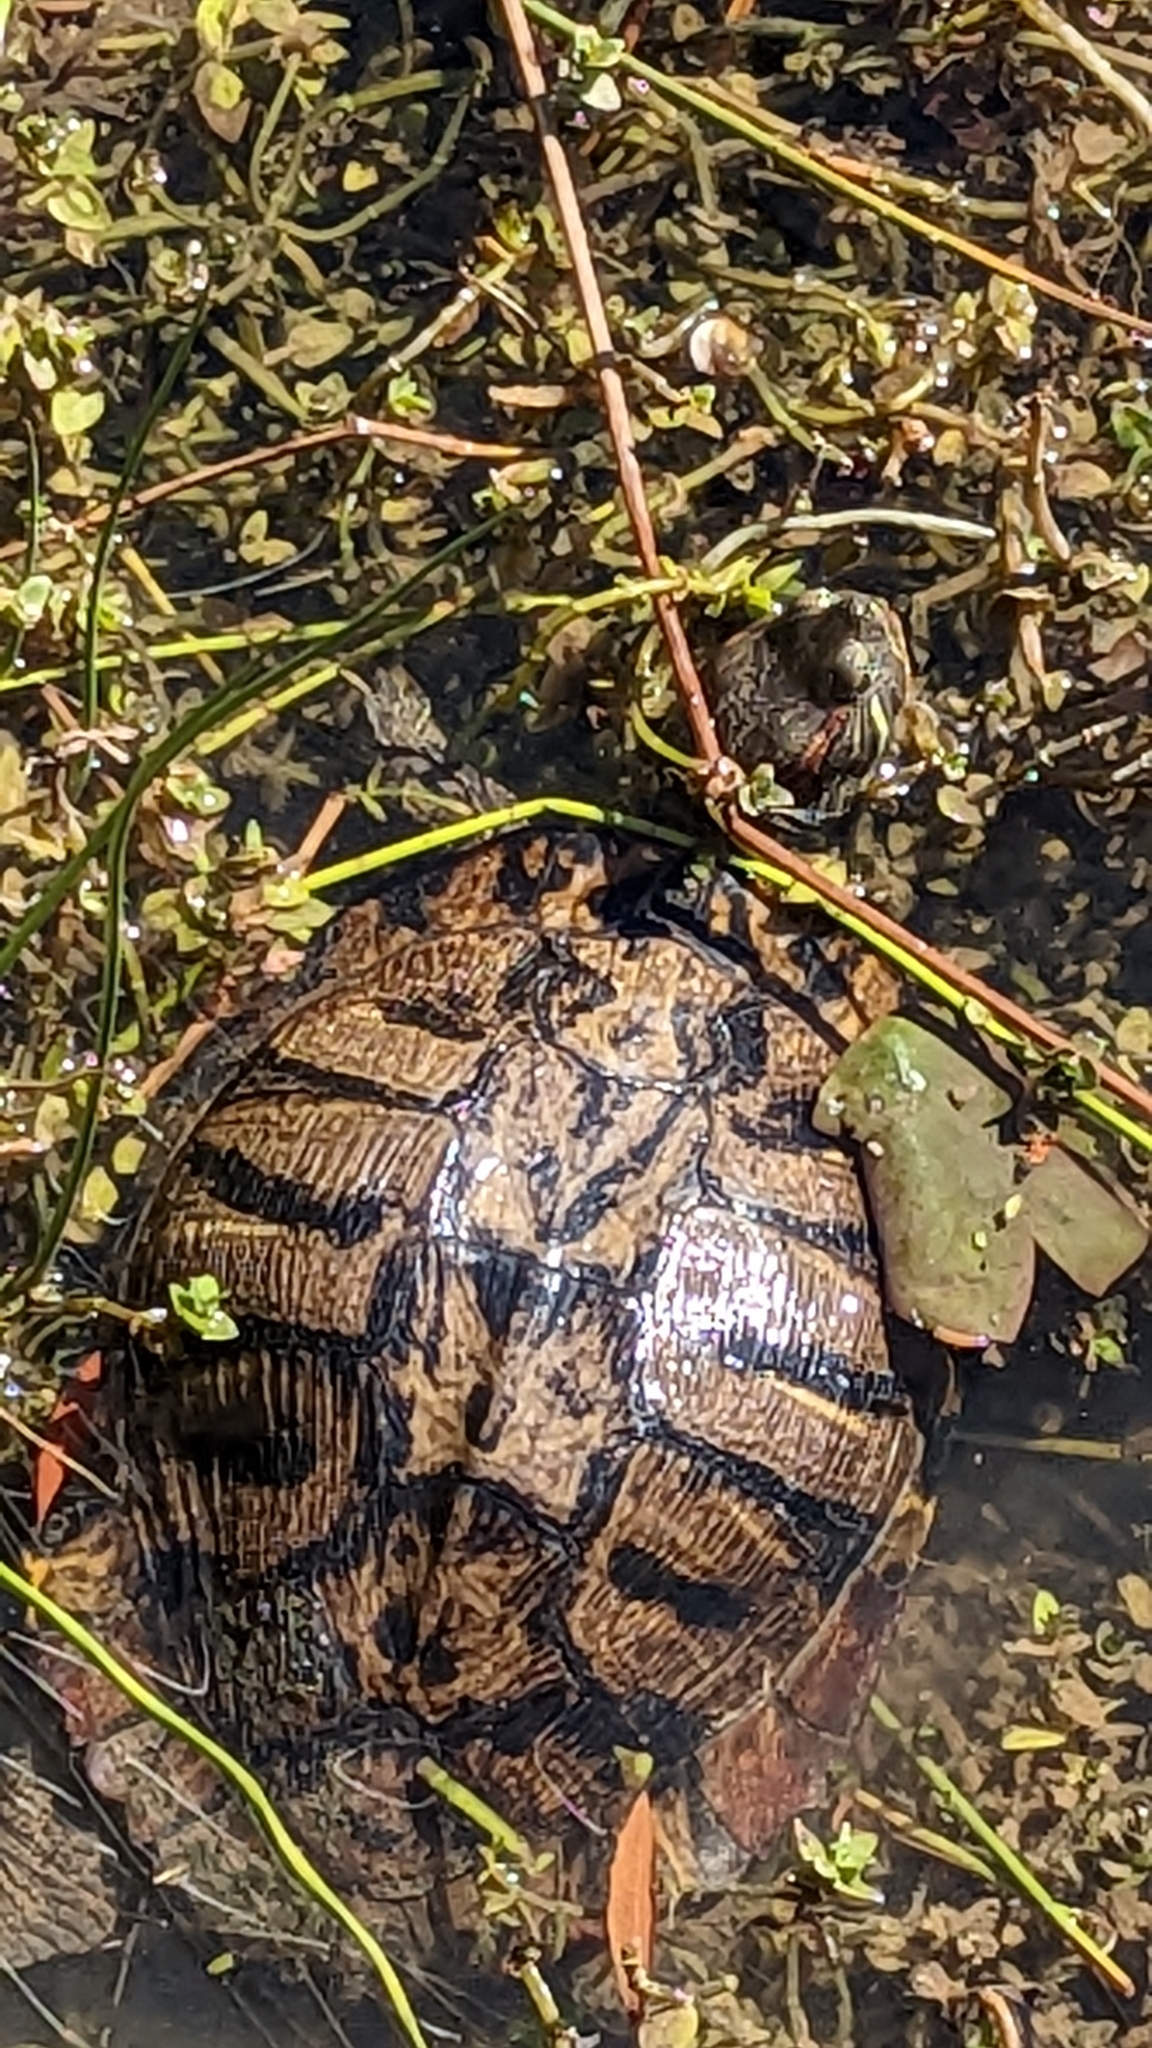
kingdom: Animalia
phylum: Chordata
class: Testudines
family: Emydidae
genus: Trachemys
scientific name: Trachemys scripta
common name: Slider
